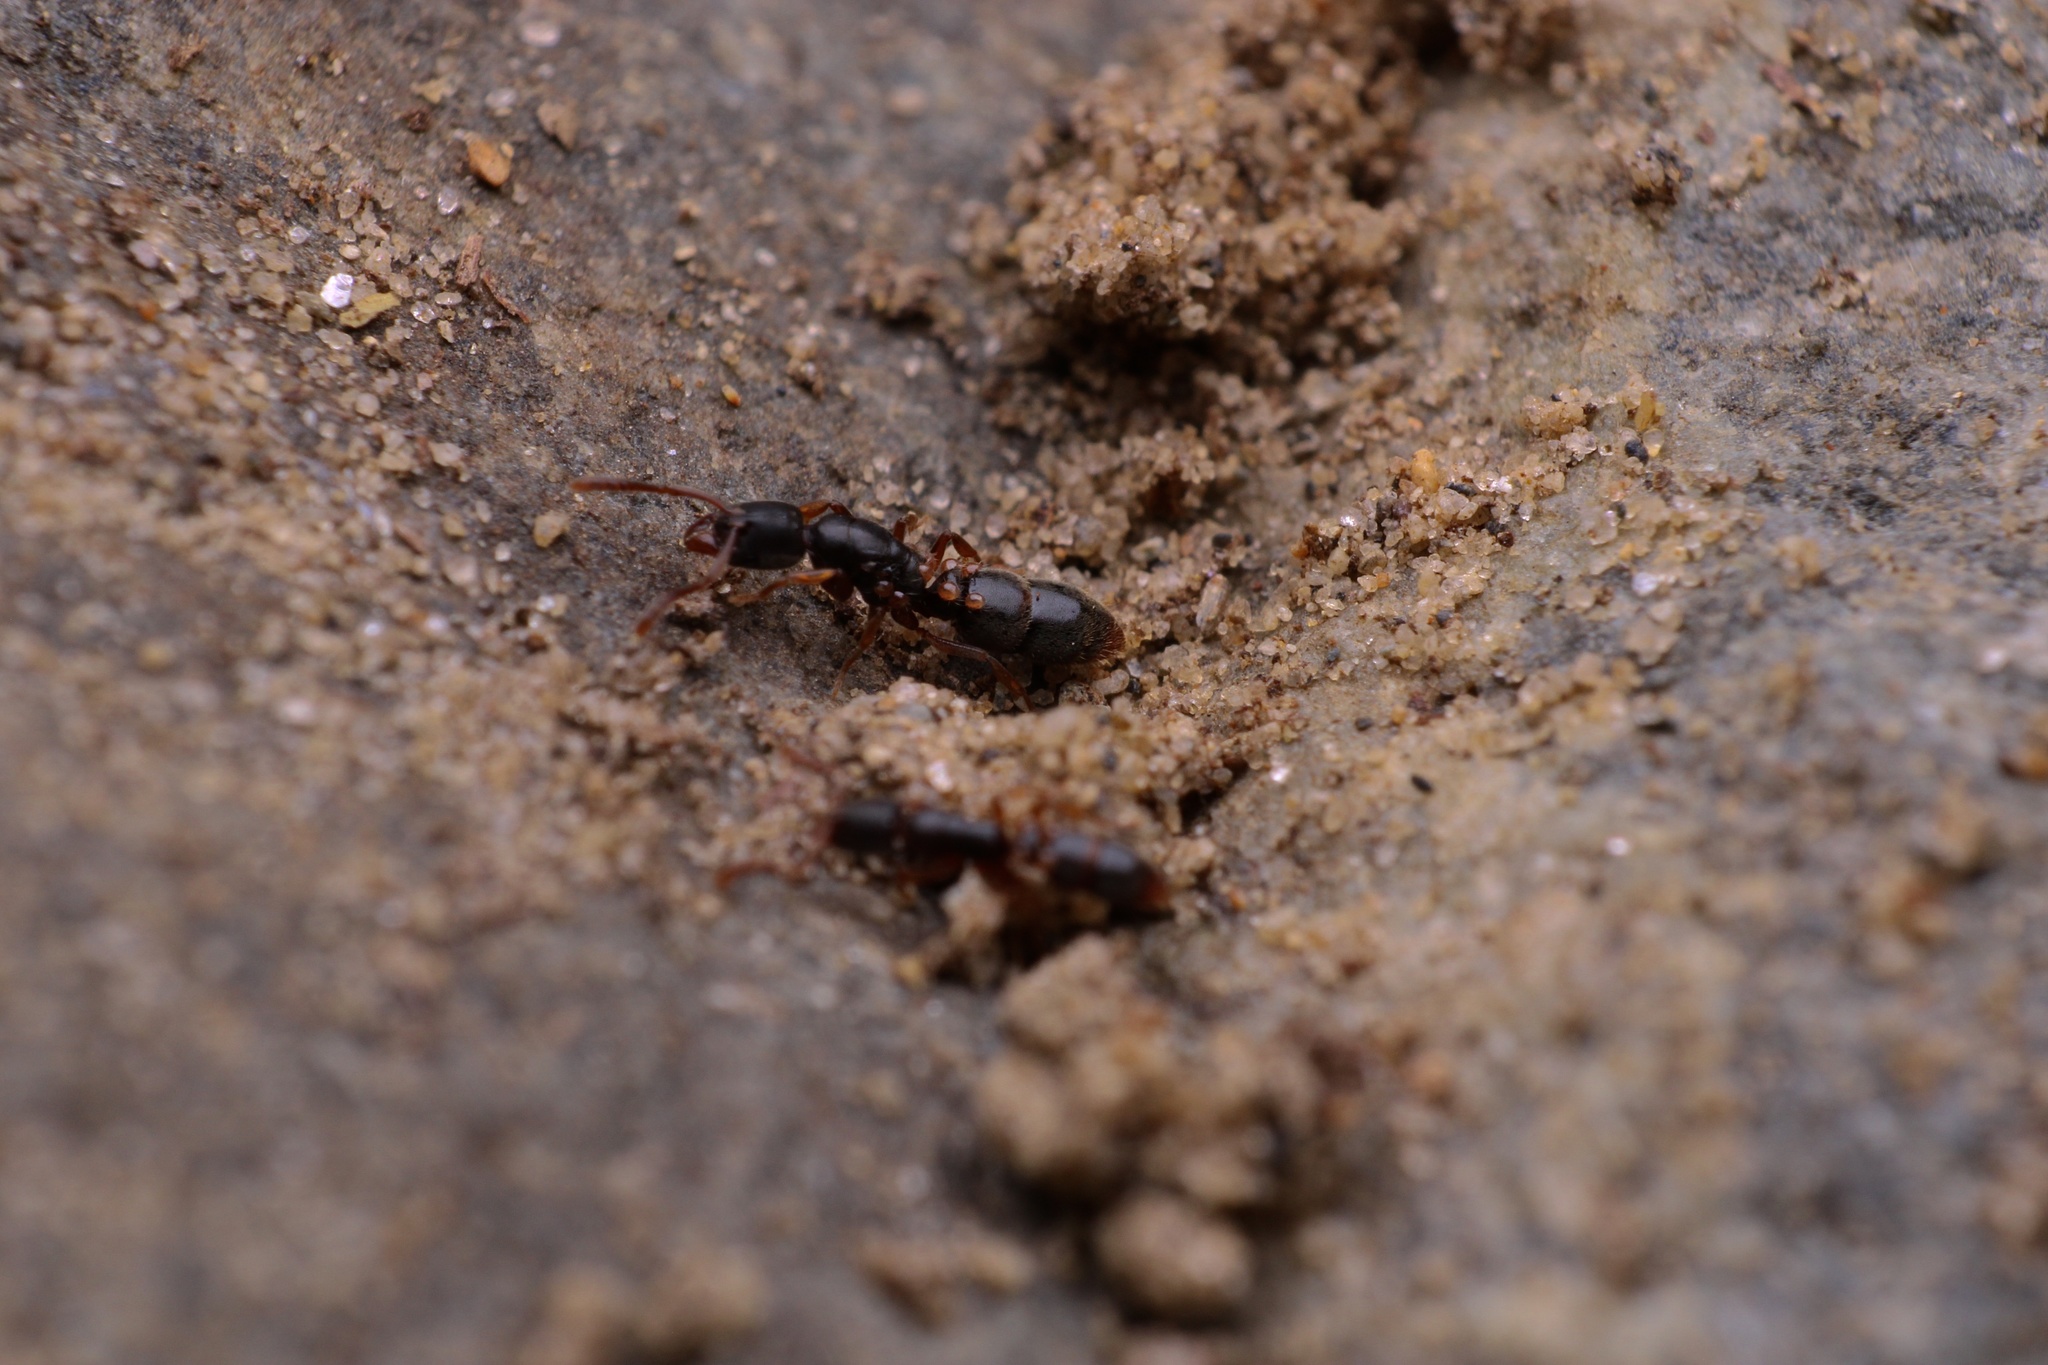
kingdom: Animalia
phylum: Arthropoda
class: Insecta
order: Hymenoptera
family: Formicidae
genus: Ponera
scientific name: Ponera pennsylvanica
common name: Pennsylvania ponera
